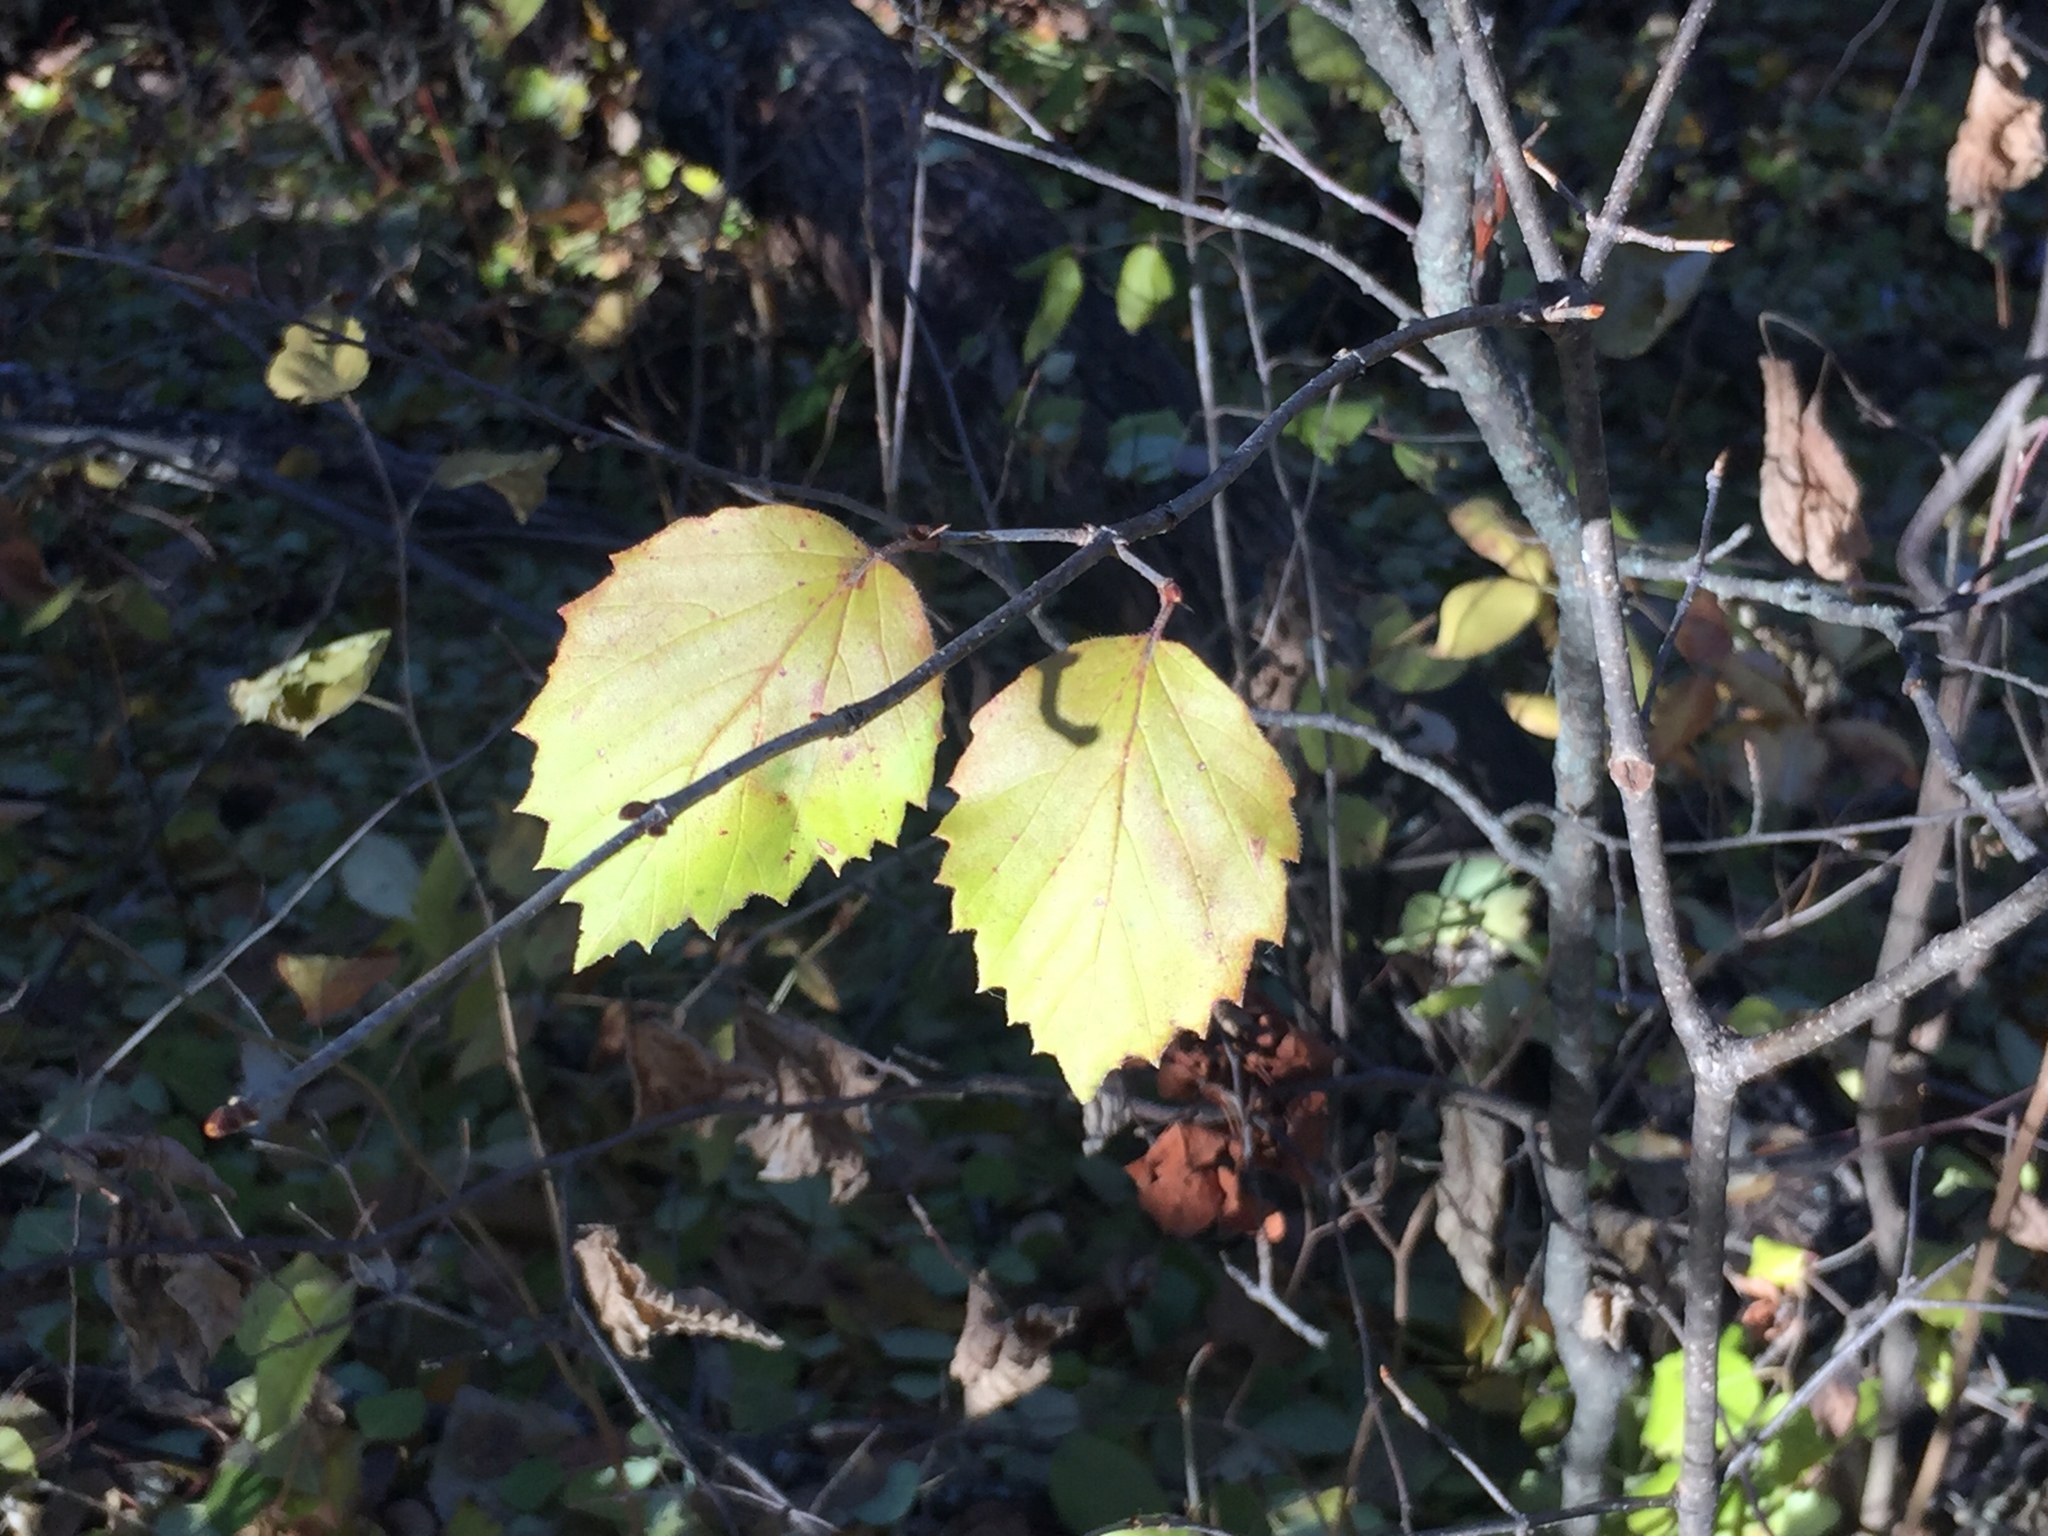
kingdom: Plantae
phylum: Tracheophyta
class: Magnoliopsida
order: Dipsacales
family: Viburnaceae
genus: Viburnum
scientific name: Viburnum rafinesqueanum
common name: Downy arrow-wood
